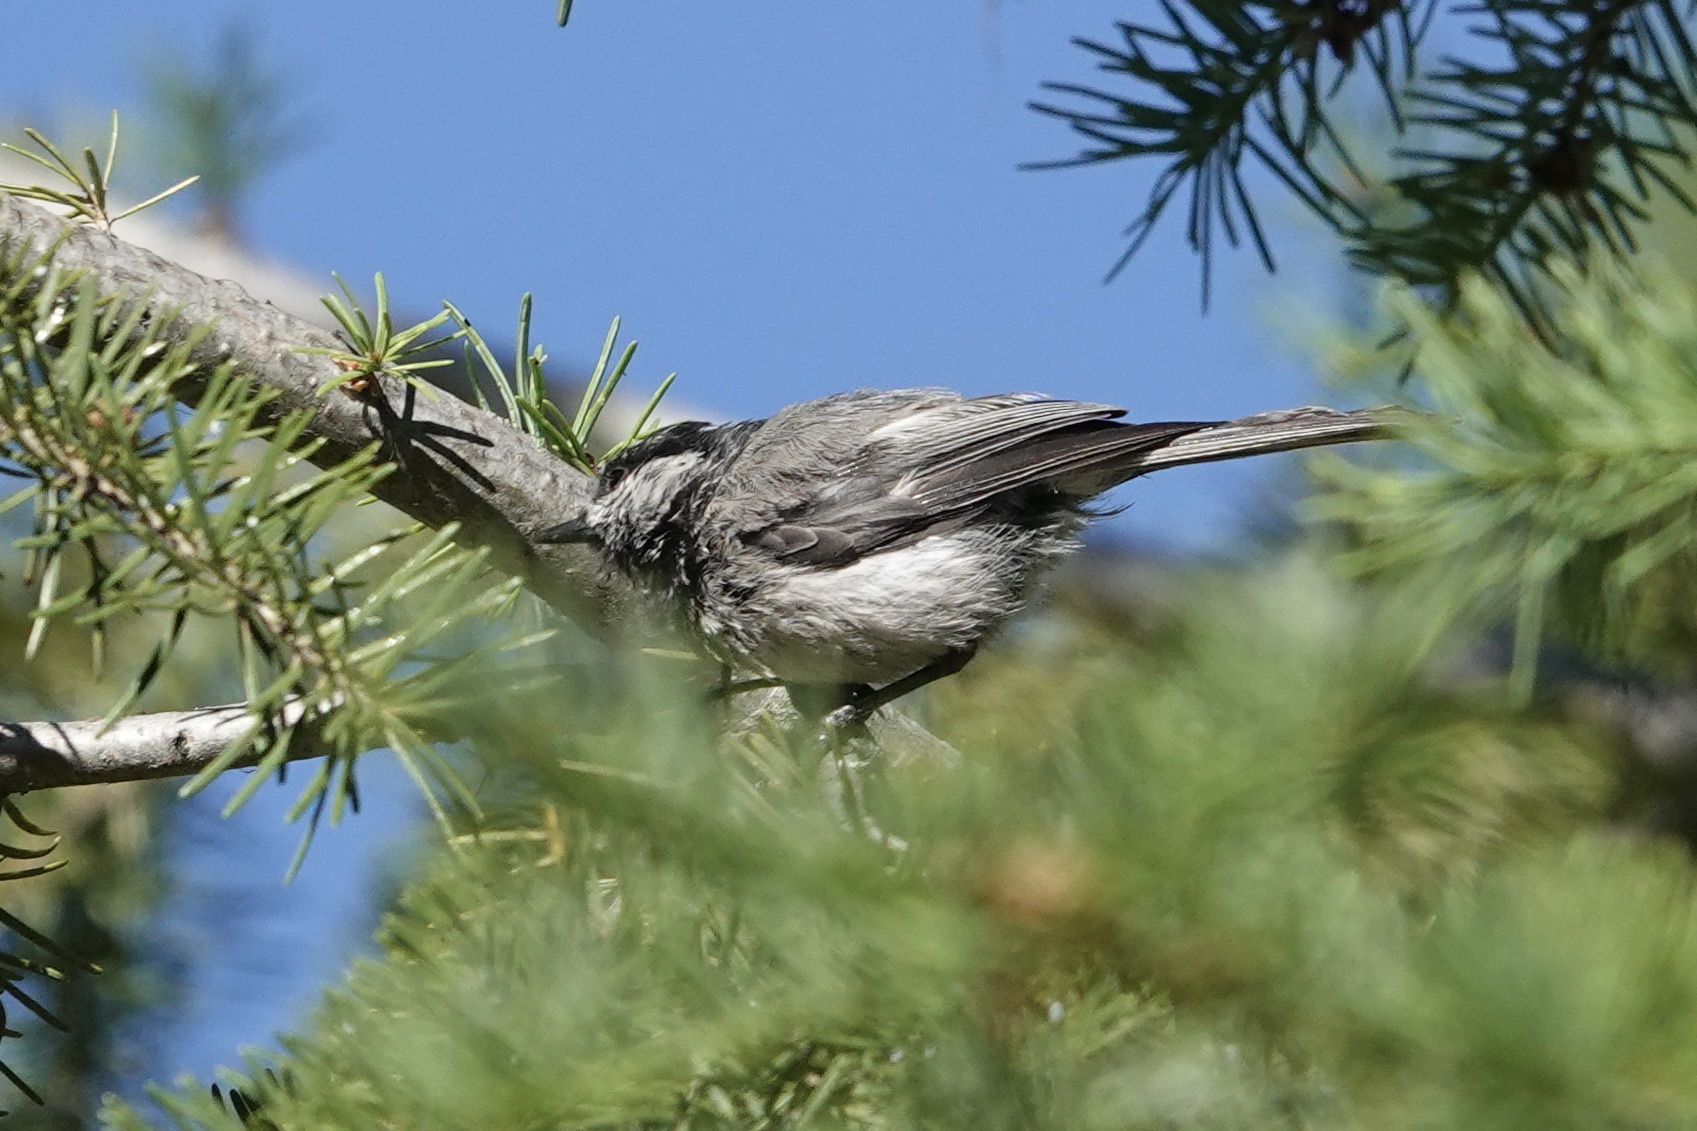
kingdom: Animalia
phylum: Chordata
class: Aves
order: Passeriformes
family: Paridae
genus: Poecile
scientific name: Poecile gambeli
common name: Mountain chickadee
